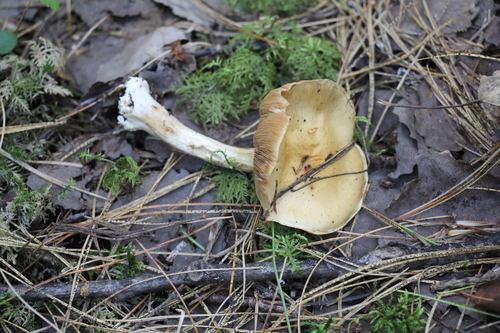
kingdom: Fungi
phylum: Basidiomycota
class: Agaricomycetes
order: Agaricales
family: Cortinariaceae
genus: Thaxterogaster
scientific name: Thaxterogaster talus
